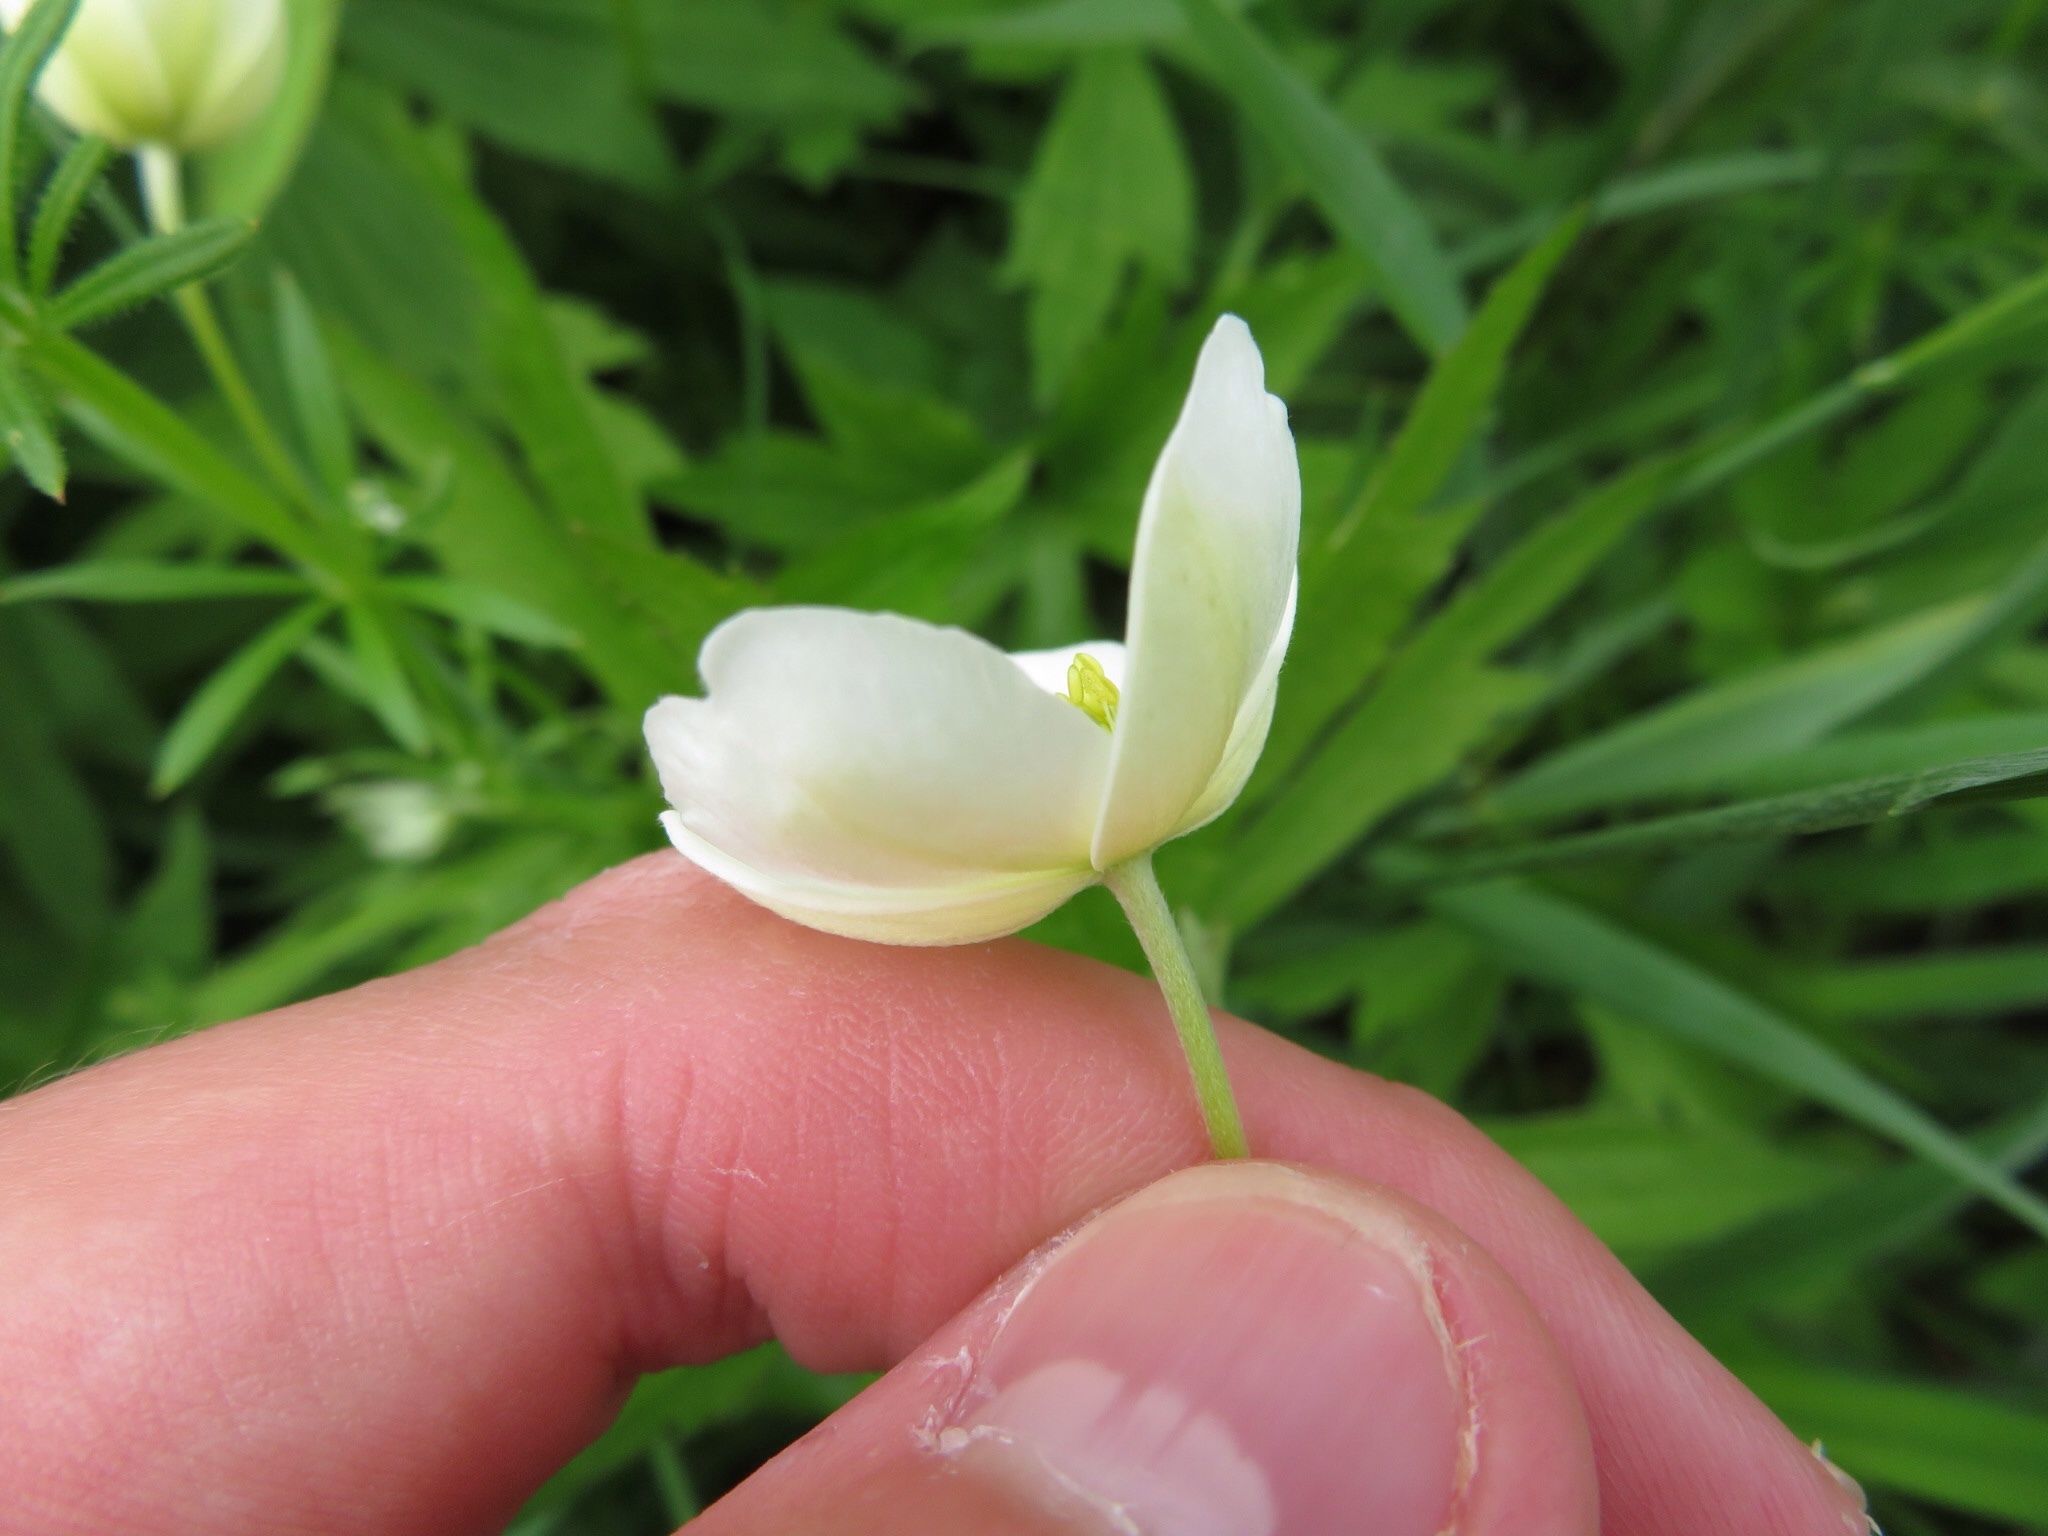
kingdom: Plantae
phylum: Tracheophyta
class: Magnoliopsida
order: Ranunculales
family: Ranunculaceae
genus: Anemonastrum
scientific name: Anemonastrum canadense
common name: Canada anemone
